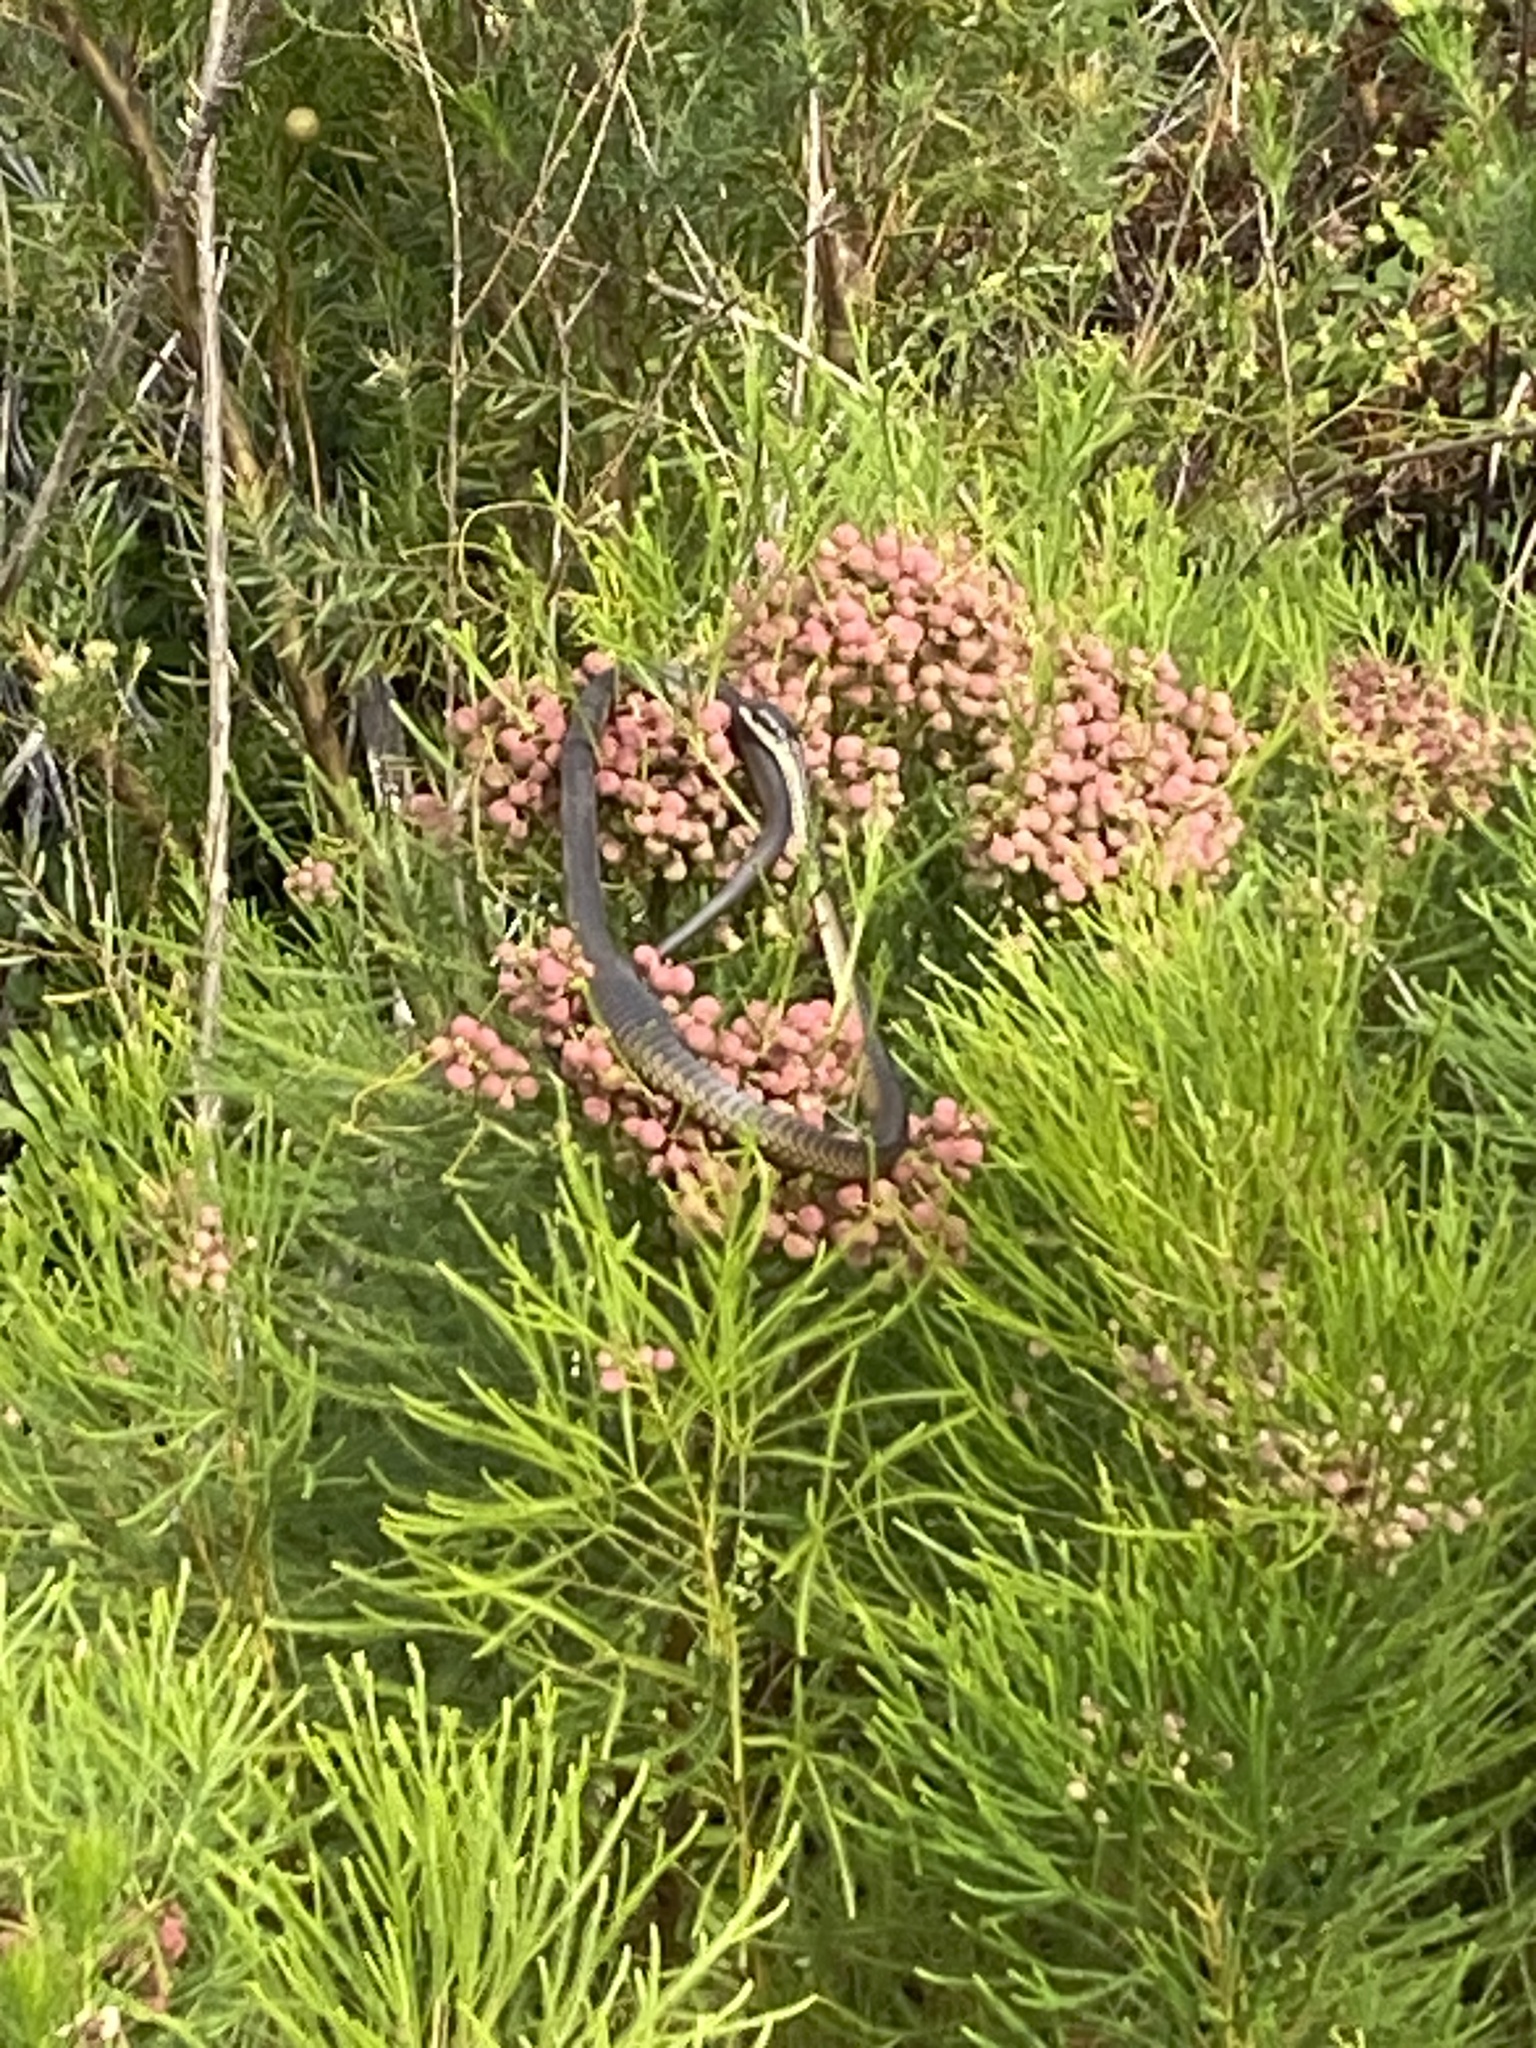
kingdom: Animalia
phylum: Chordata
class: Squamata
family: Colubridae
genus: Dispholidus
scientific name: Dispholidus typus
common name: Boomslang
